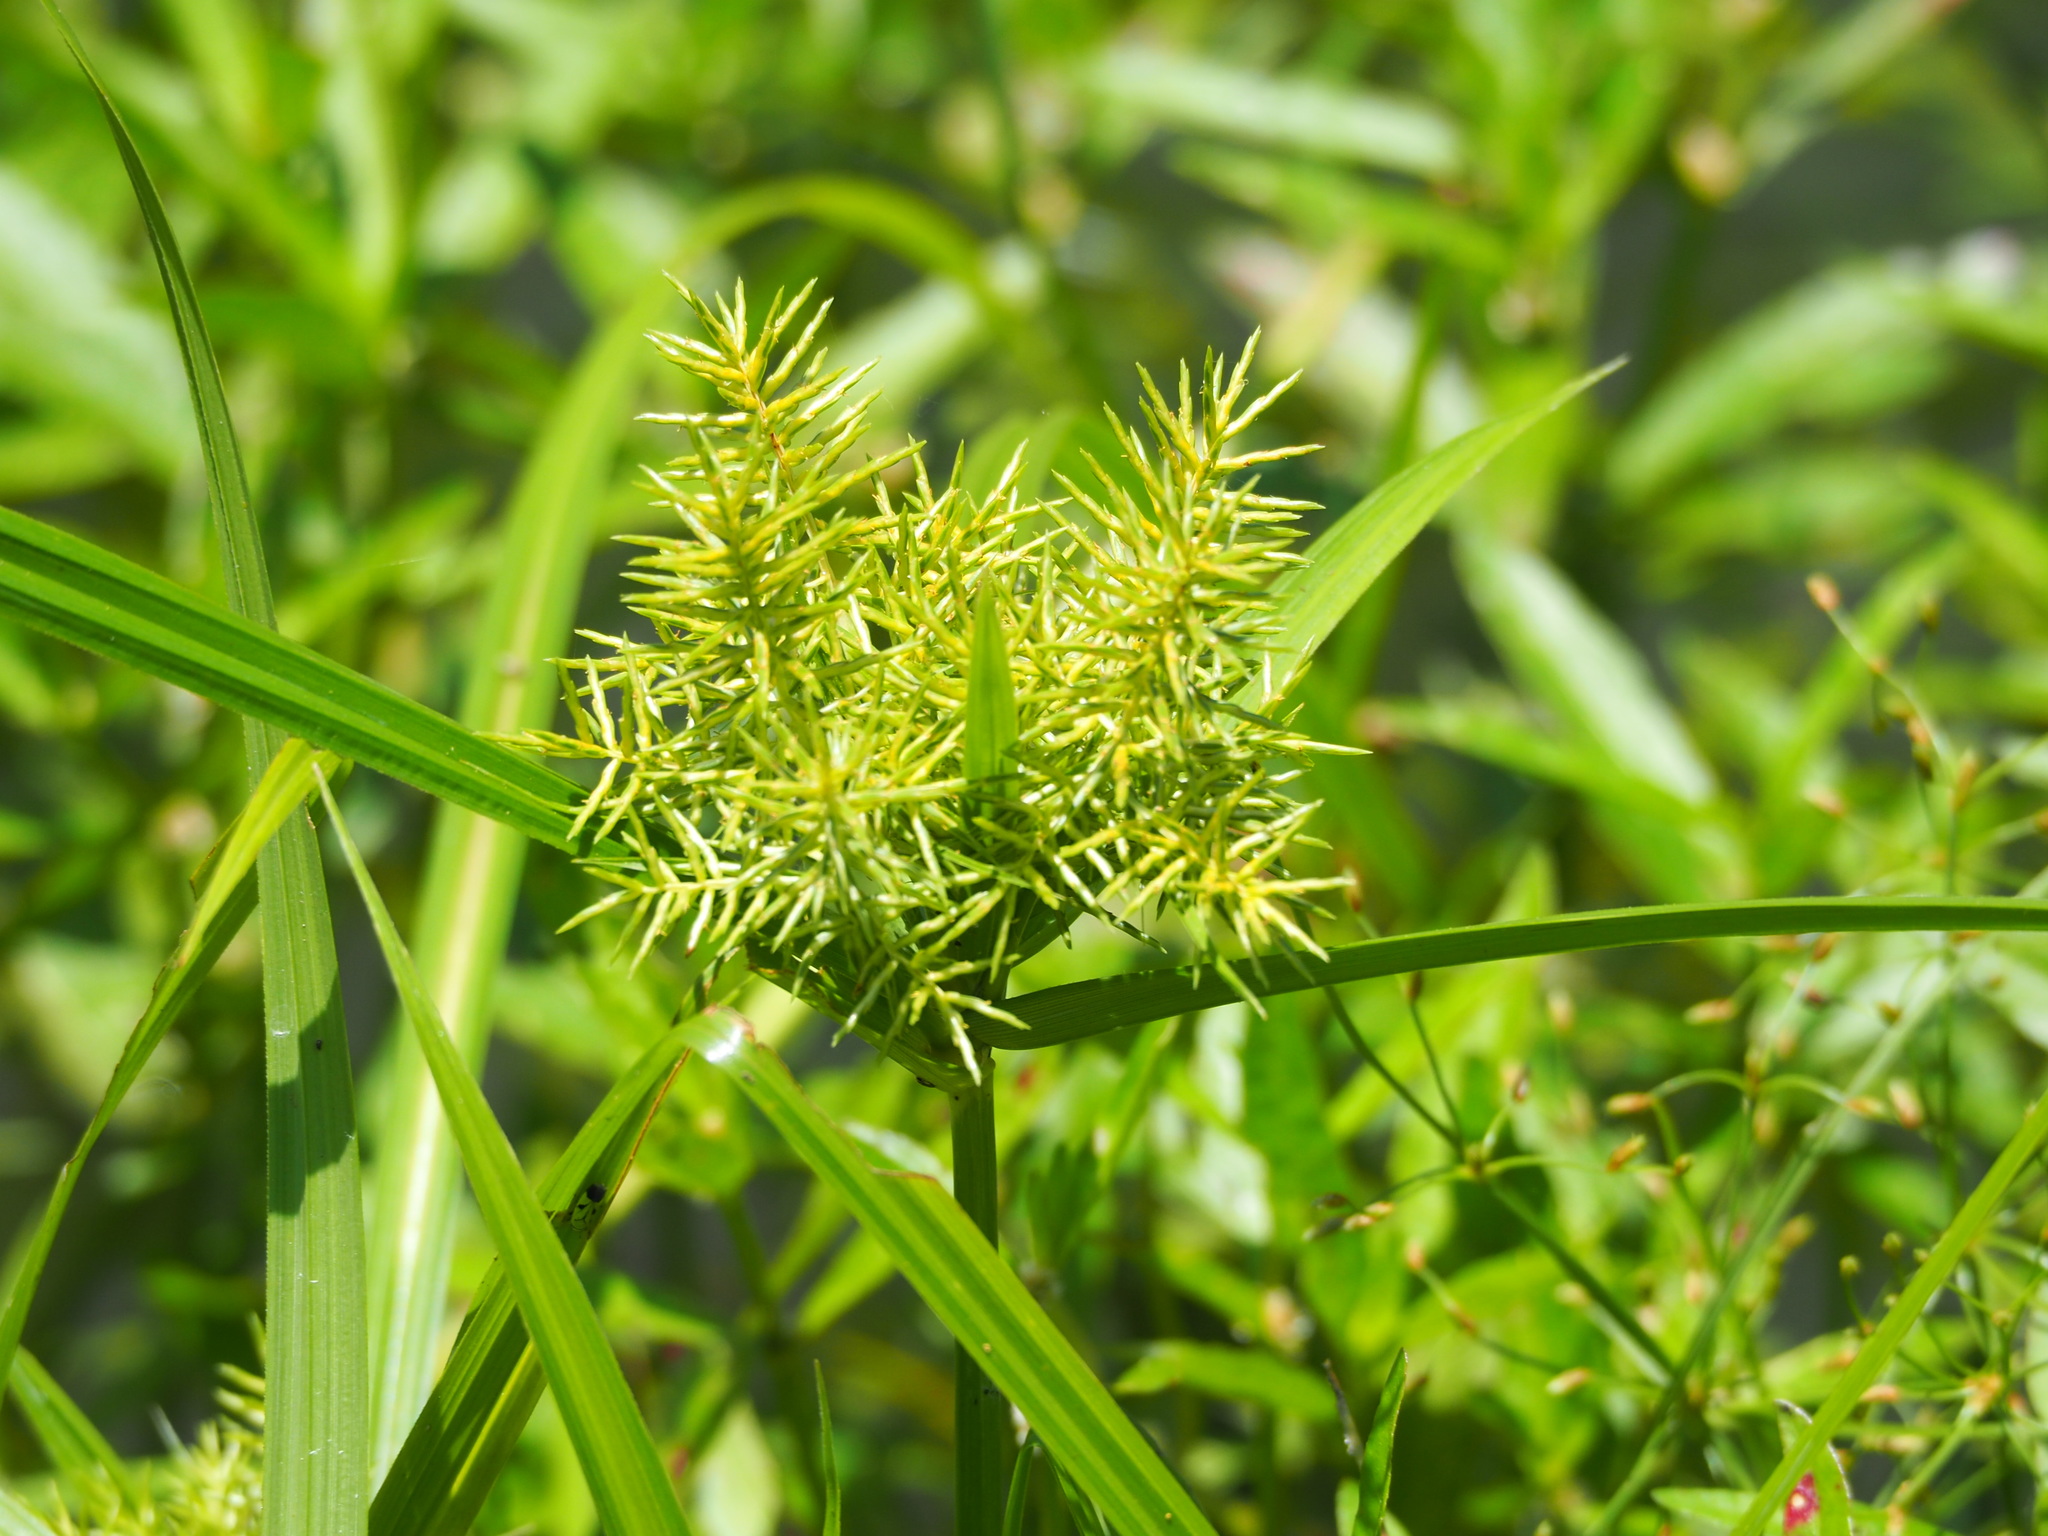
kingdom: Plantae
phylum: Tracheophyta
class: Liliopsida
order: Poales
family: Cyperaceae
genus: Cyperus
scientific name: Cyperus odoratus
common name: Fragrant flatsedge
